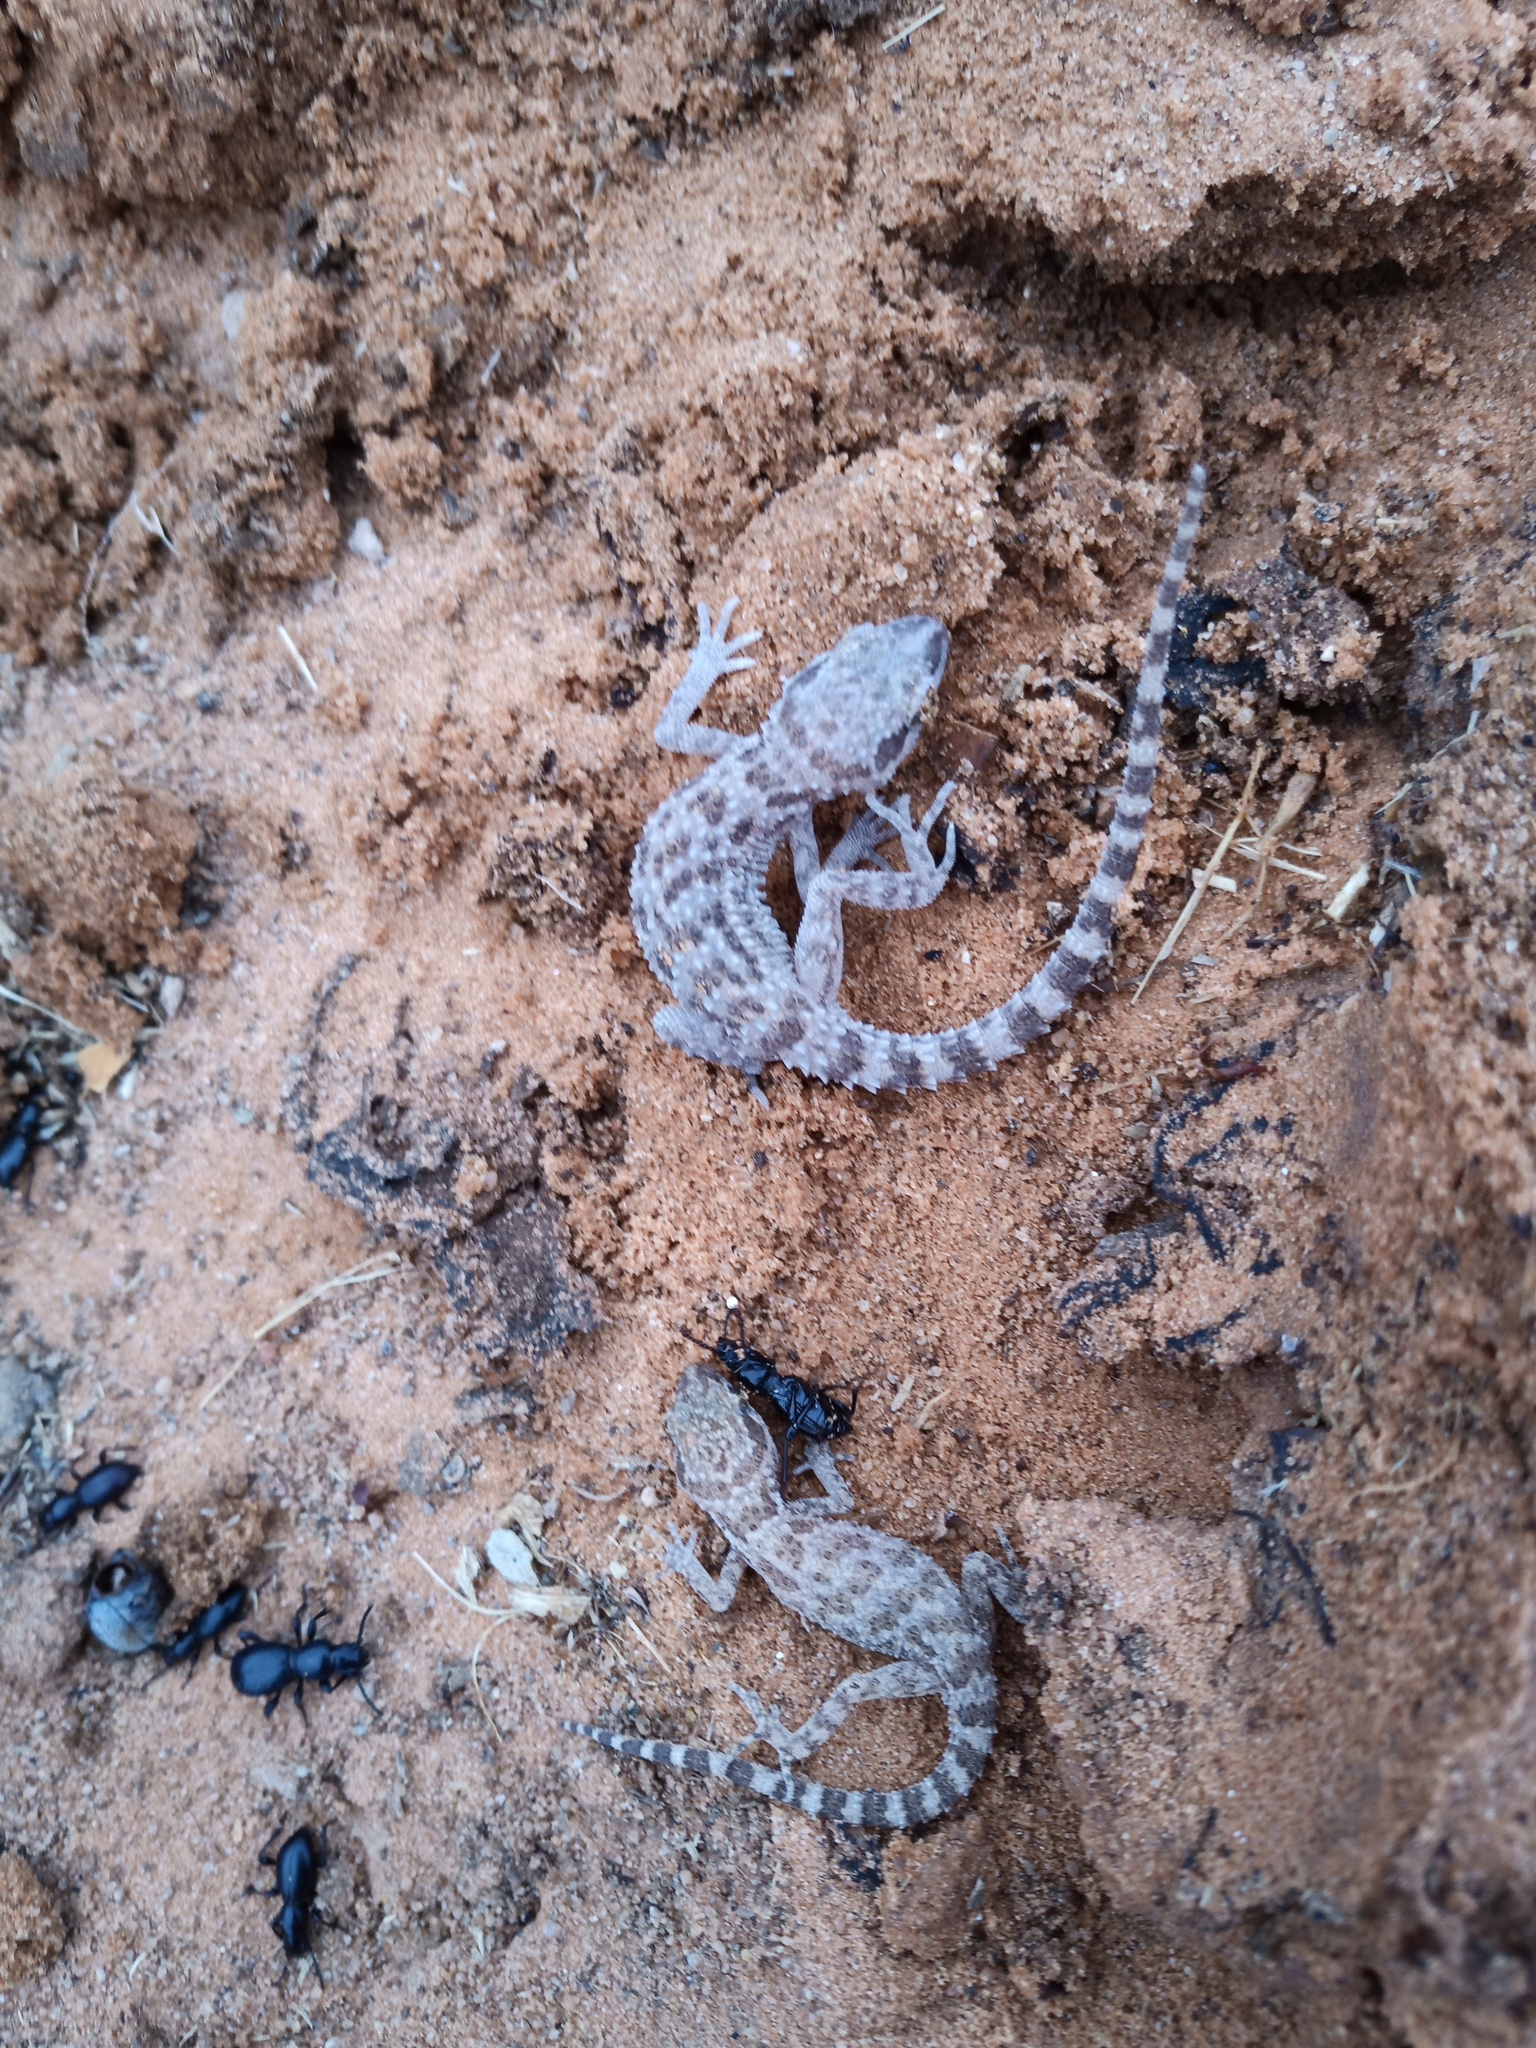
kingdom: Animalia
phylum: Chordata
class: Squamata
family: Gekkonidae
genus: Bunopus
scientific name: Bunopus tuberculatus
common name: Southern tuberculated gecko
